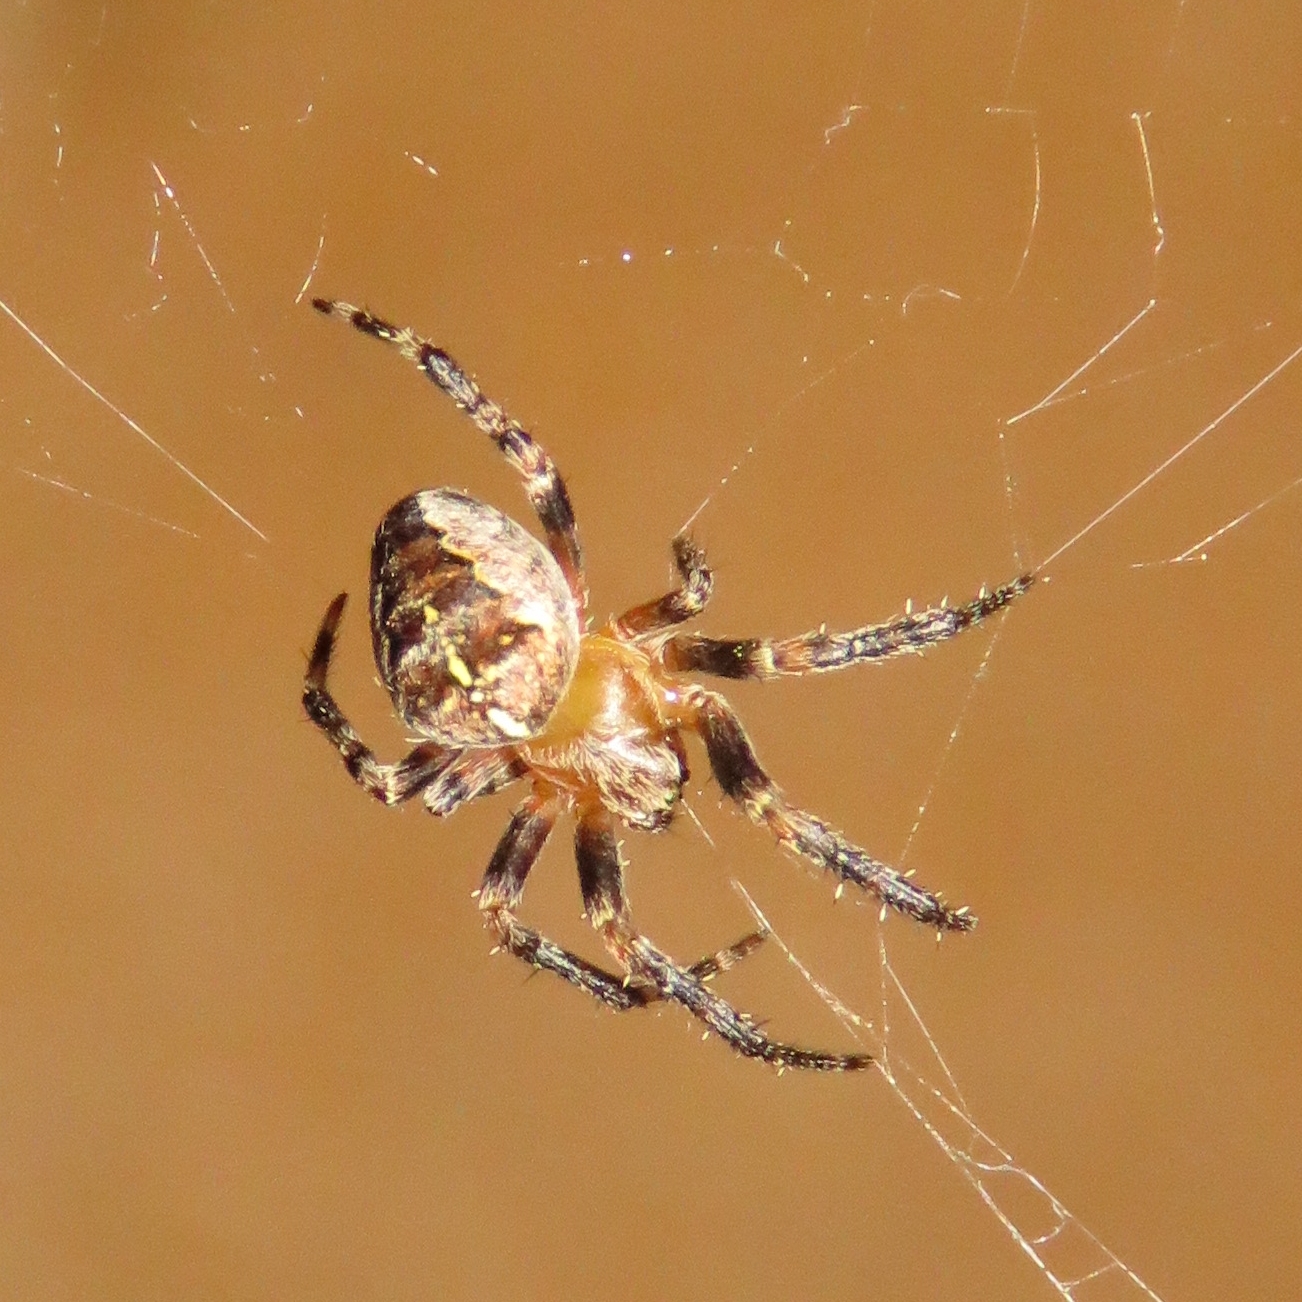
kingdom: Animalia
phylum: Arthropoda
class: Arachnida
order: Araneae
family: Araneidae
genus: Araneus
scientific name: Araneus diadematus
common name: Cross orbweaver
